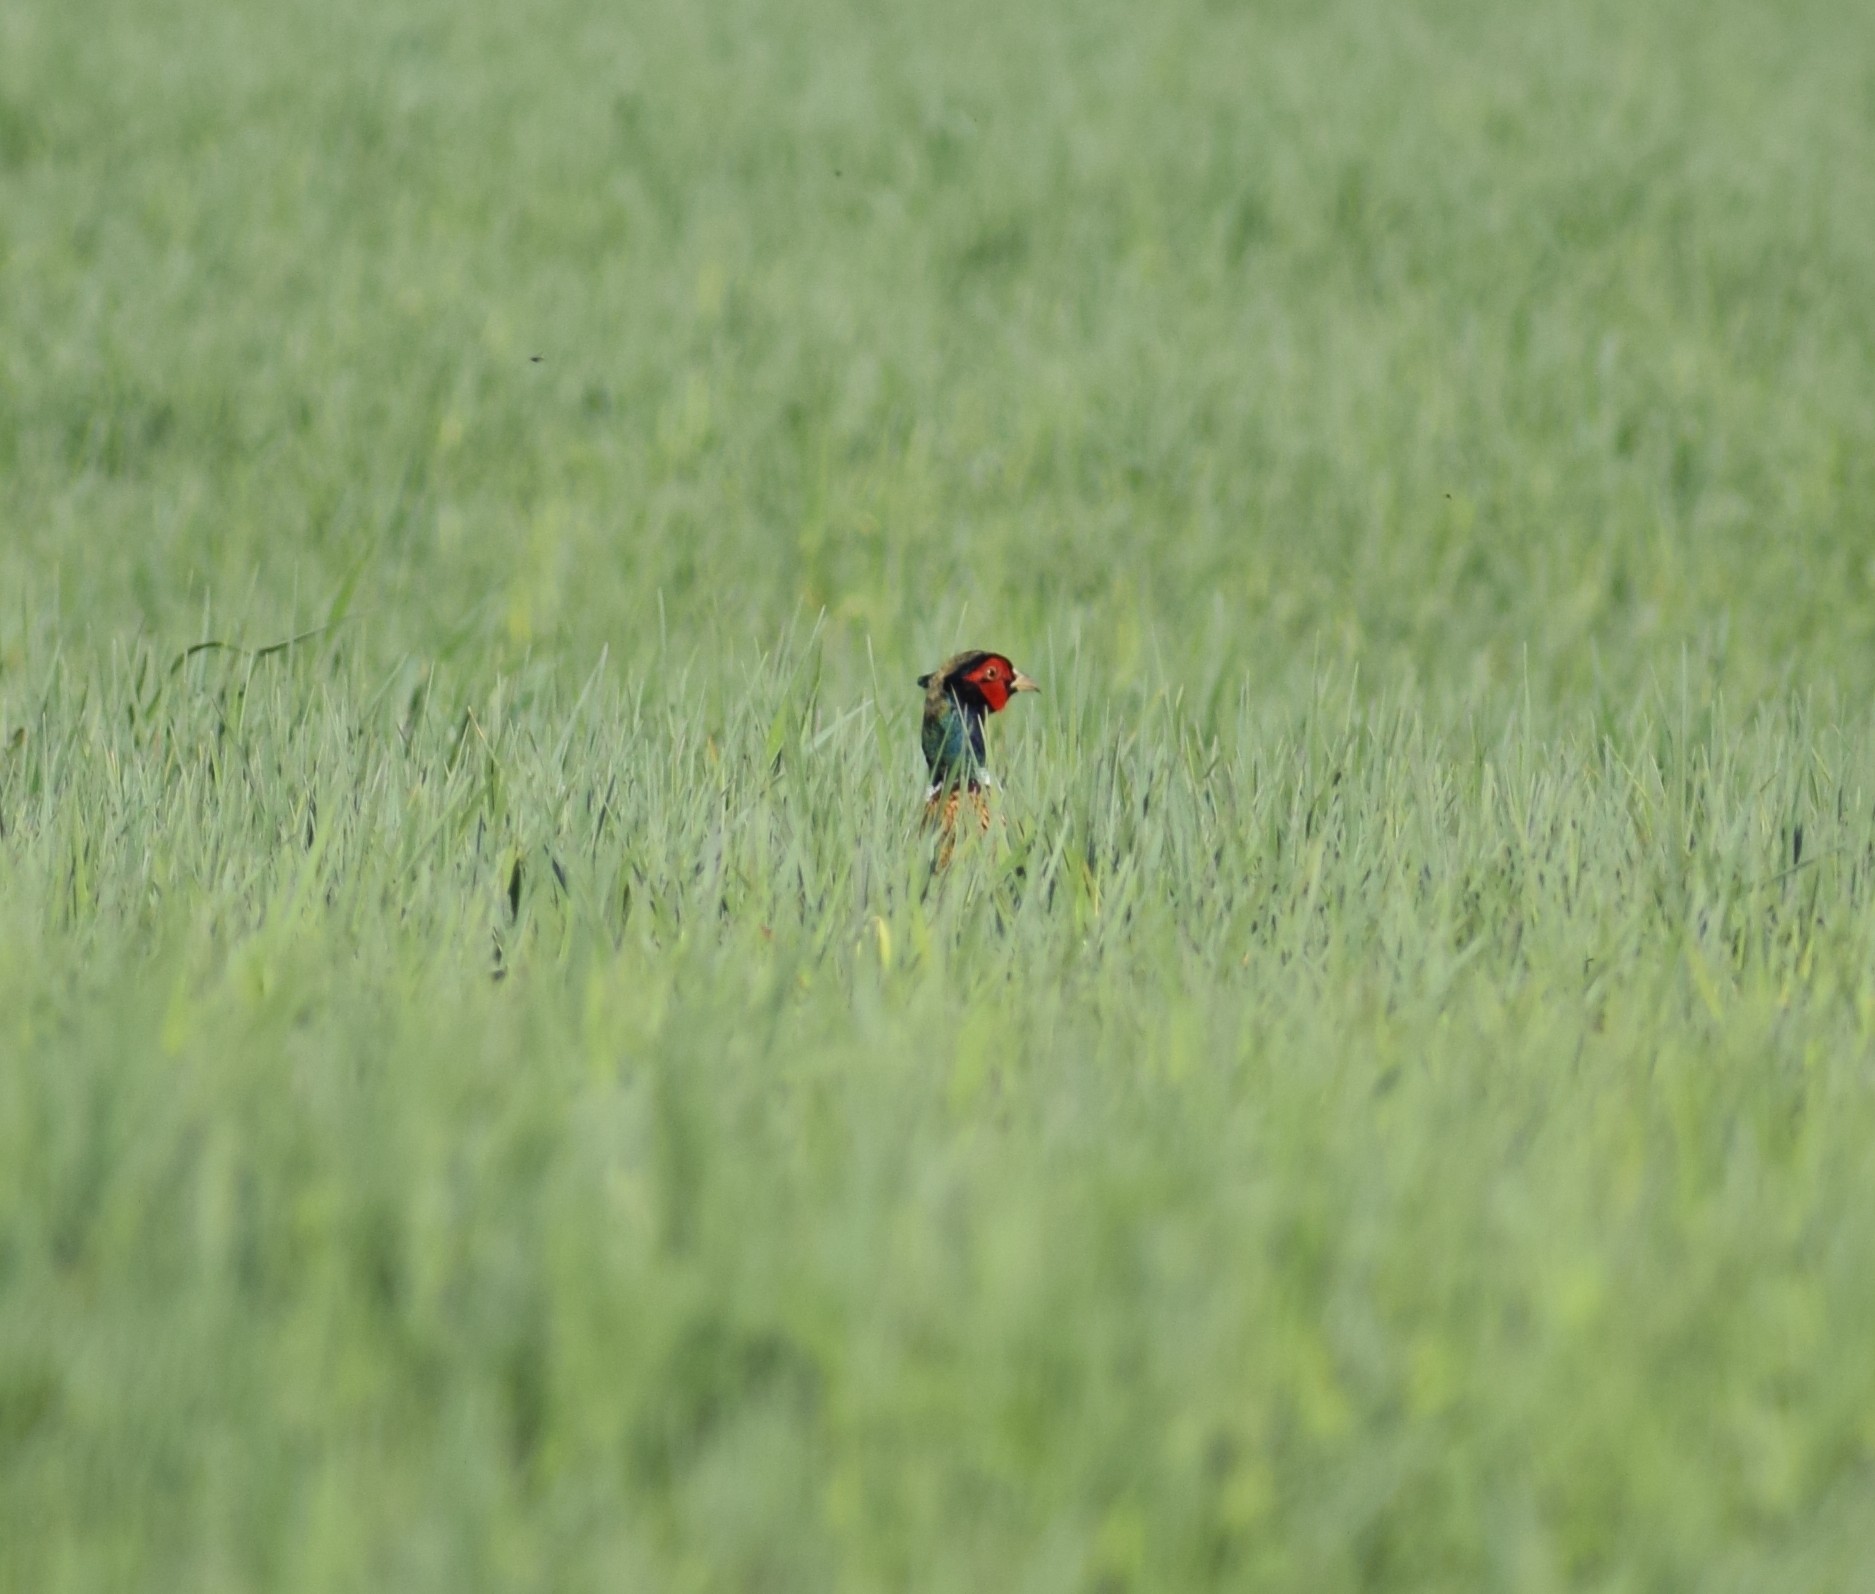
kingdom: Animalia
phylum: Chordata
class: Aves
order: Galliformes
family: Phasianidae
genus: Phasianus
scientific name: Phasianus colchicus
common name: Common pheasant
